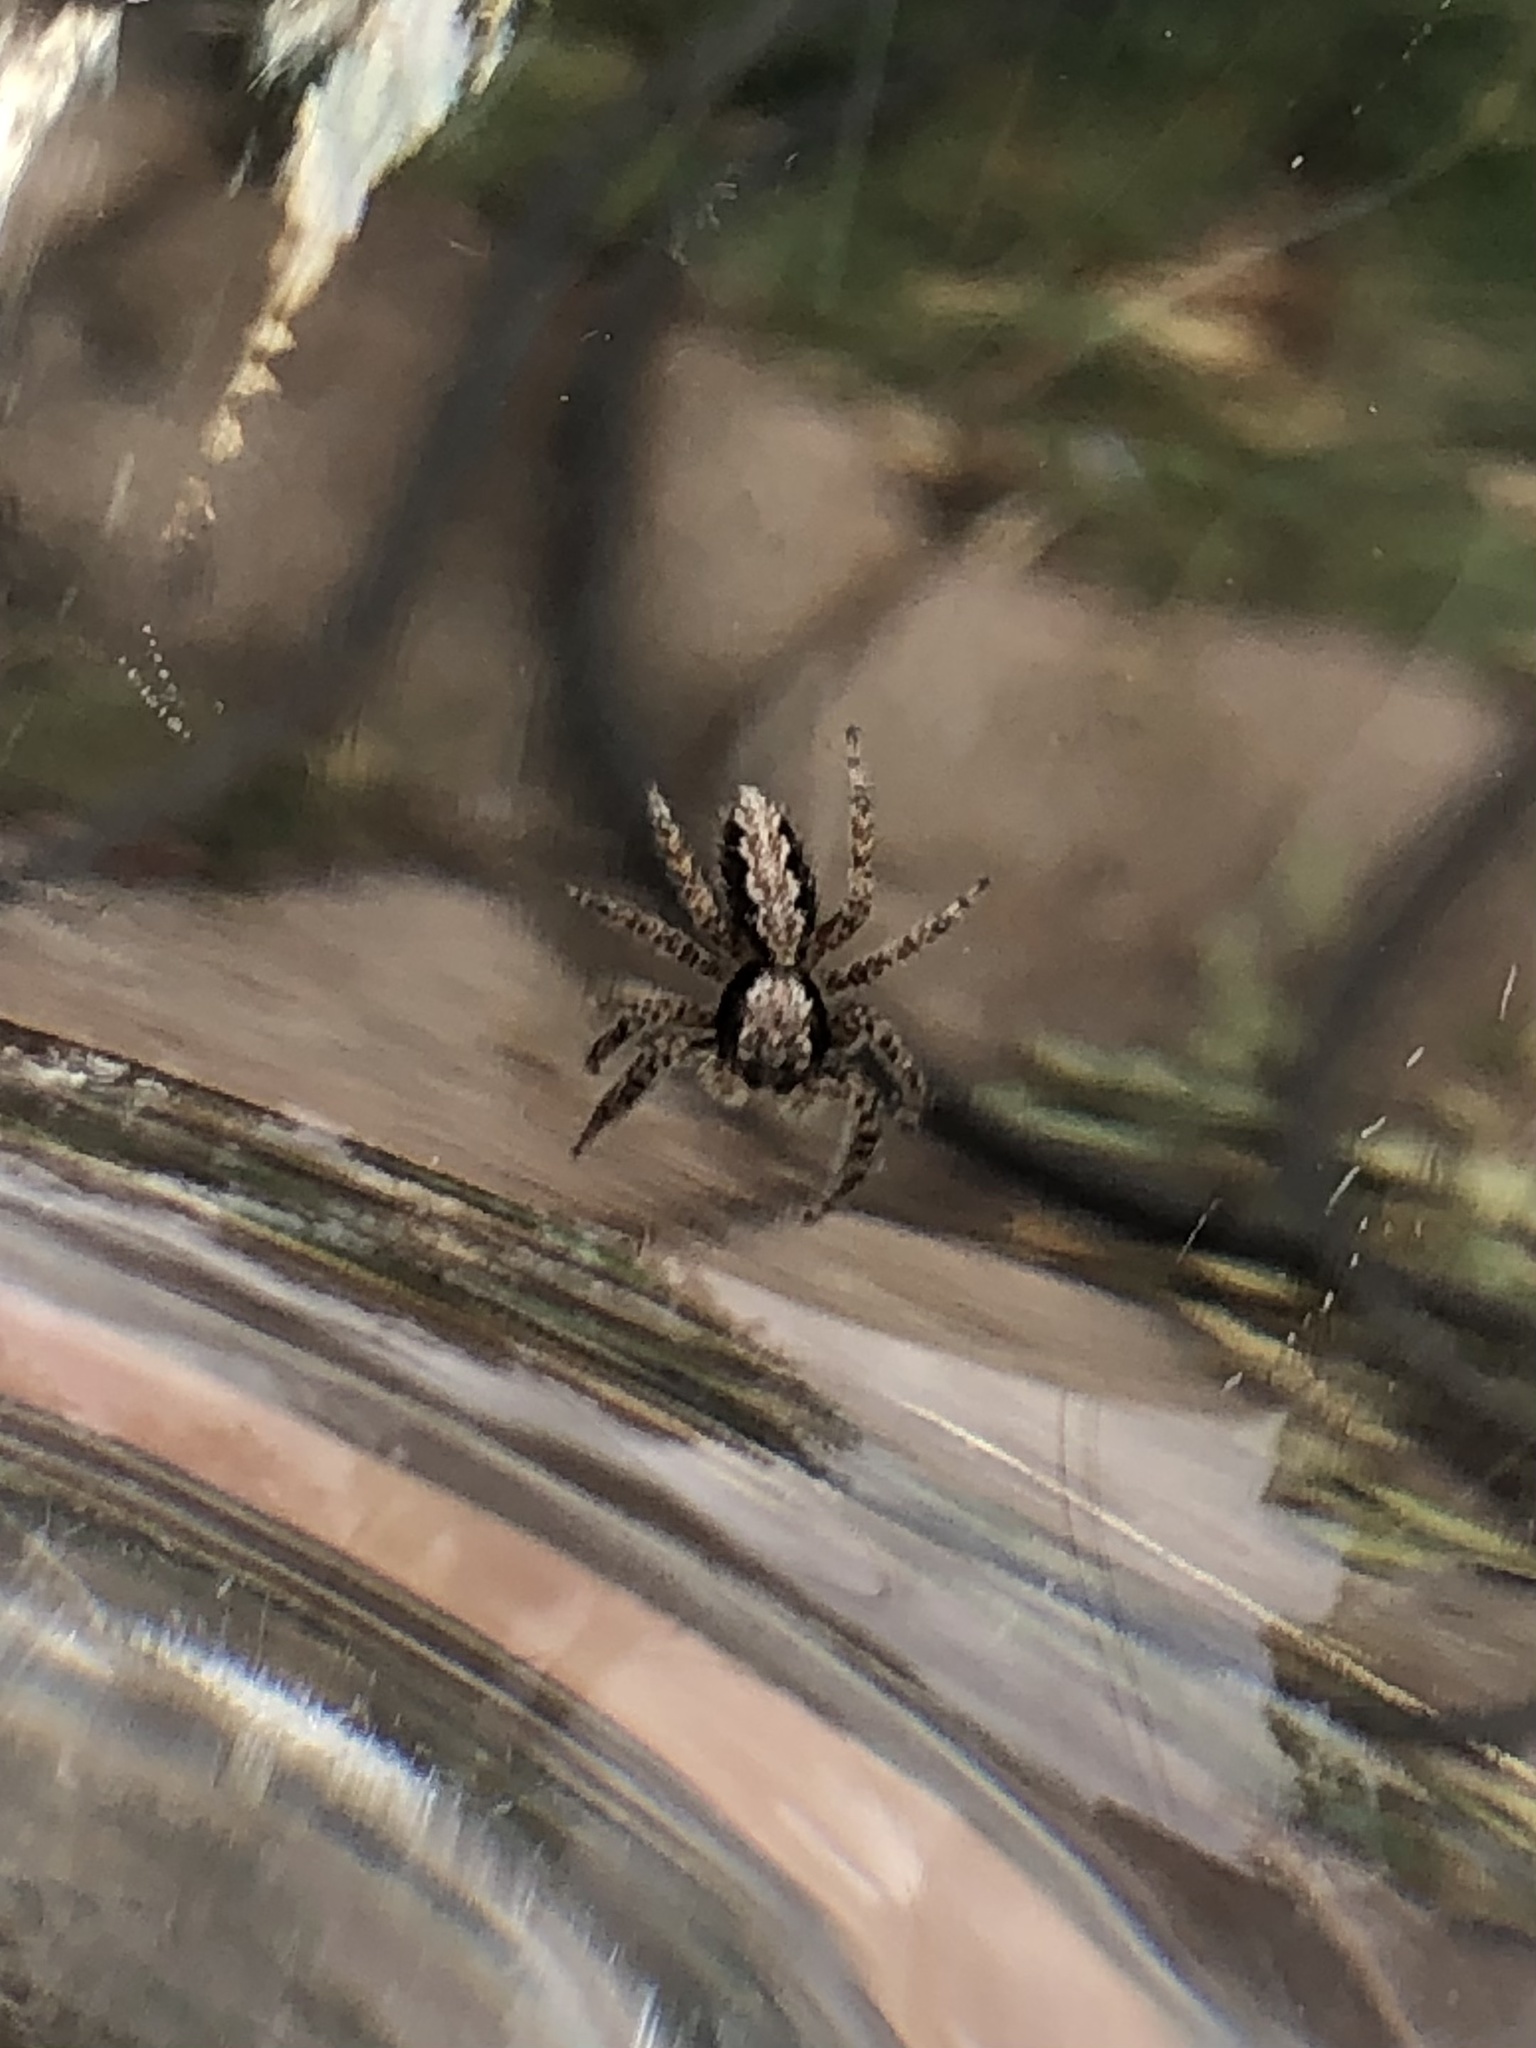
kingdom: Animalia
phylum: Arthropoda
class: Arachnida
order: Araneae
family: Salticidae
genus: Platycryptus
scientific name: Platycryptus californicus
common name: Jumping spiders
